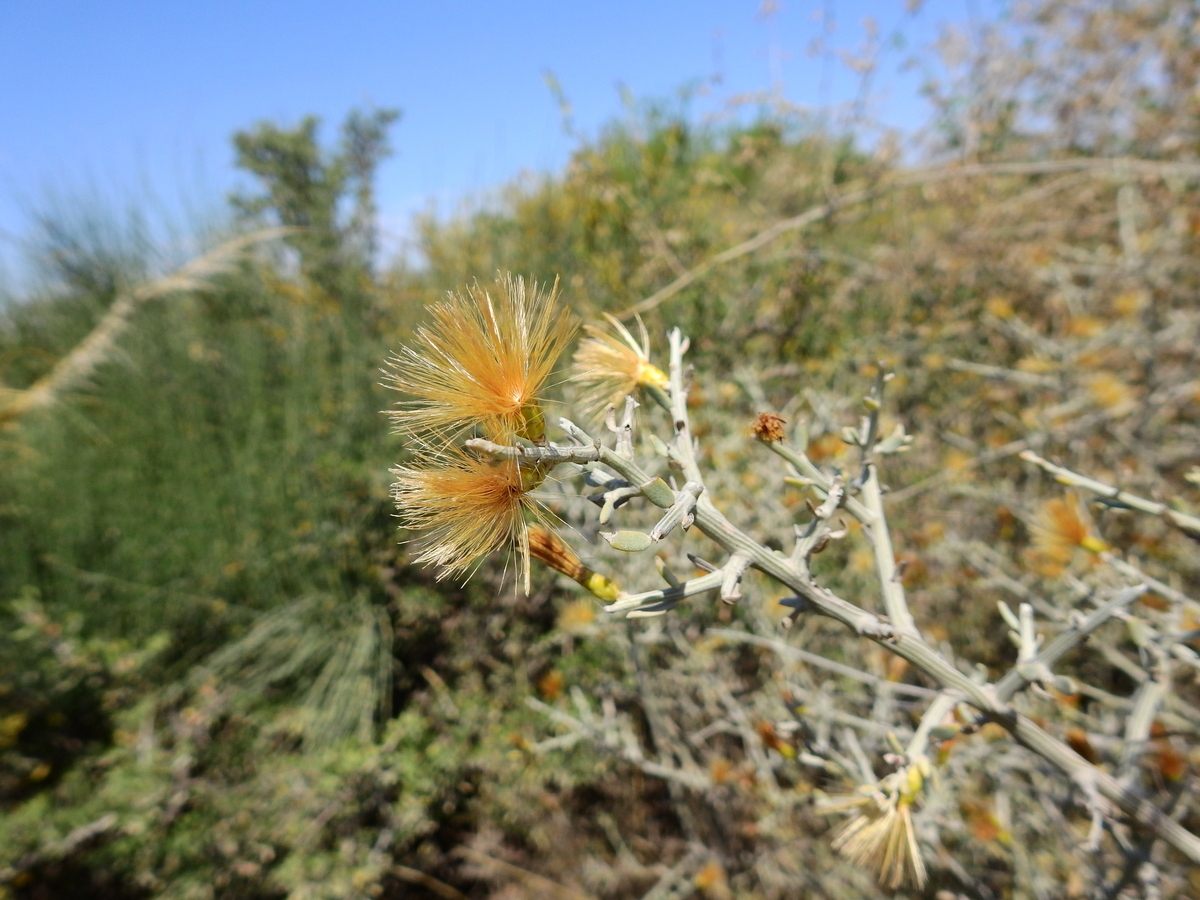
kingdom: Plantae
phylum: Tracheophyta
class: Magnoliopsida
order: Asterales
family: Asteraceae
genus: Cyclolepis
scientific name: Cyclolepis genistoides
